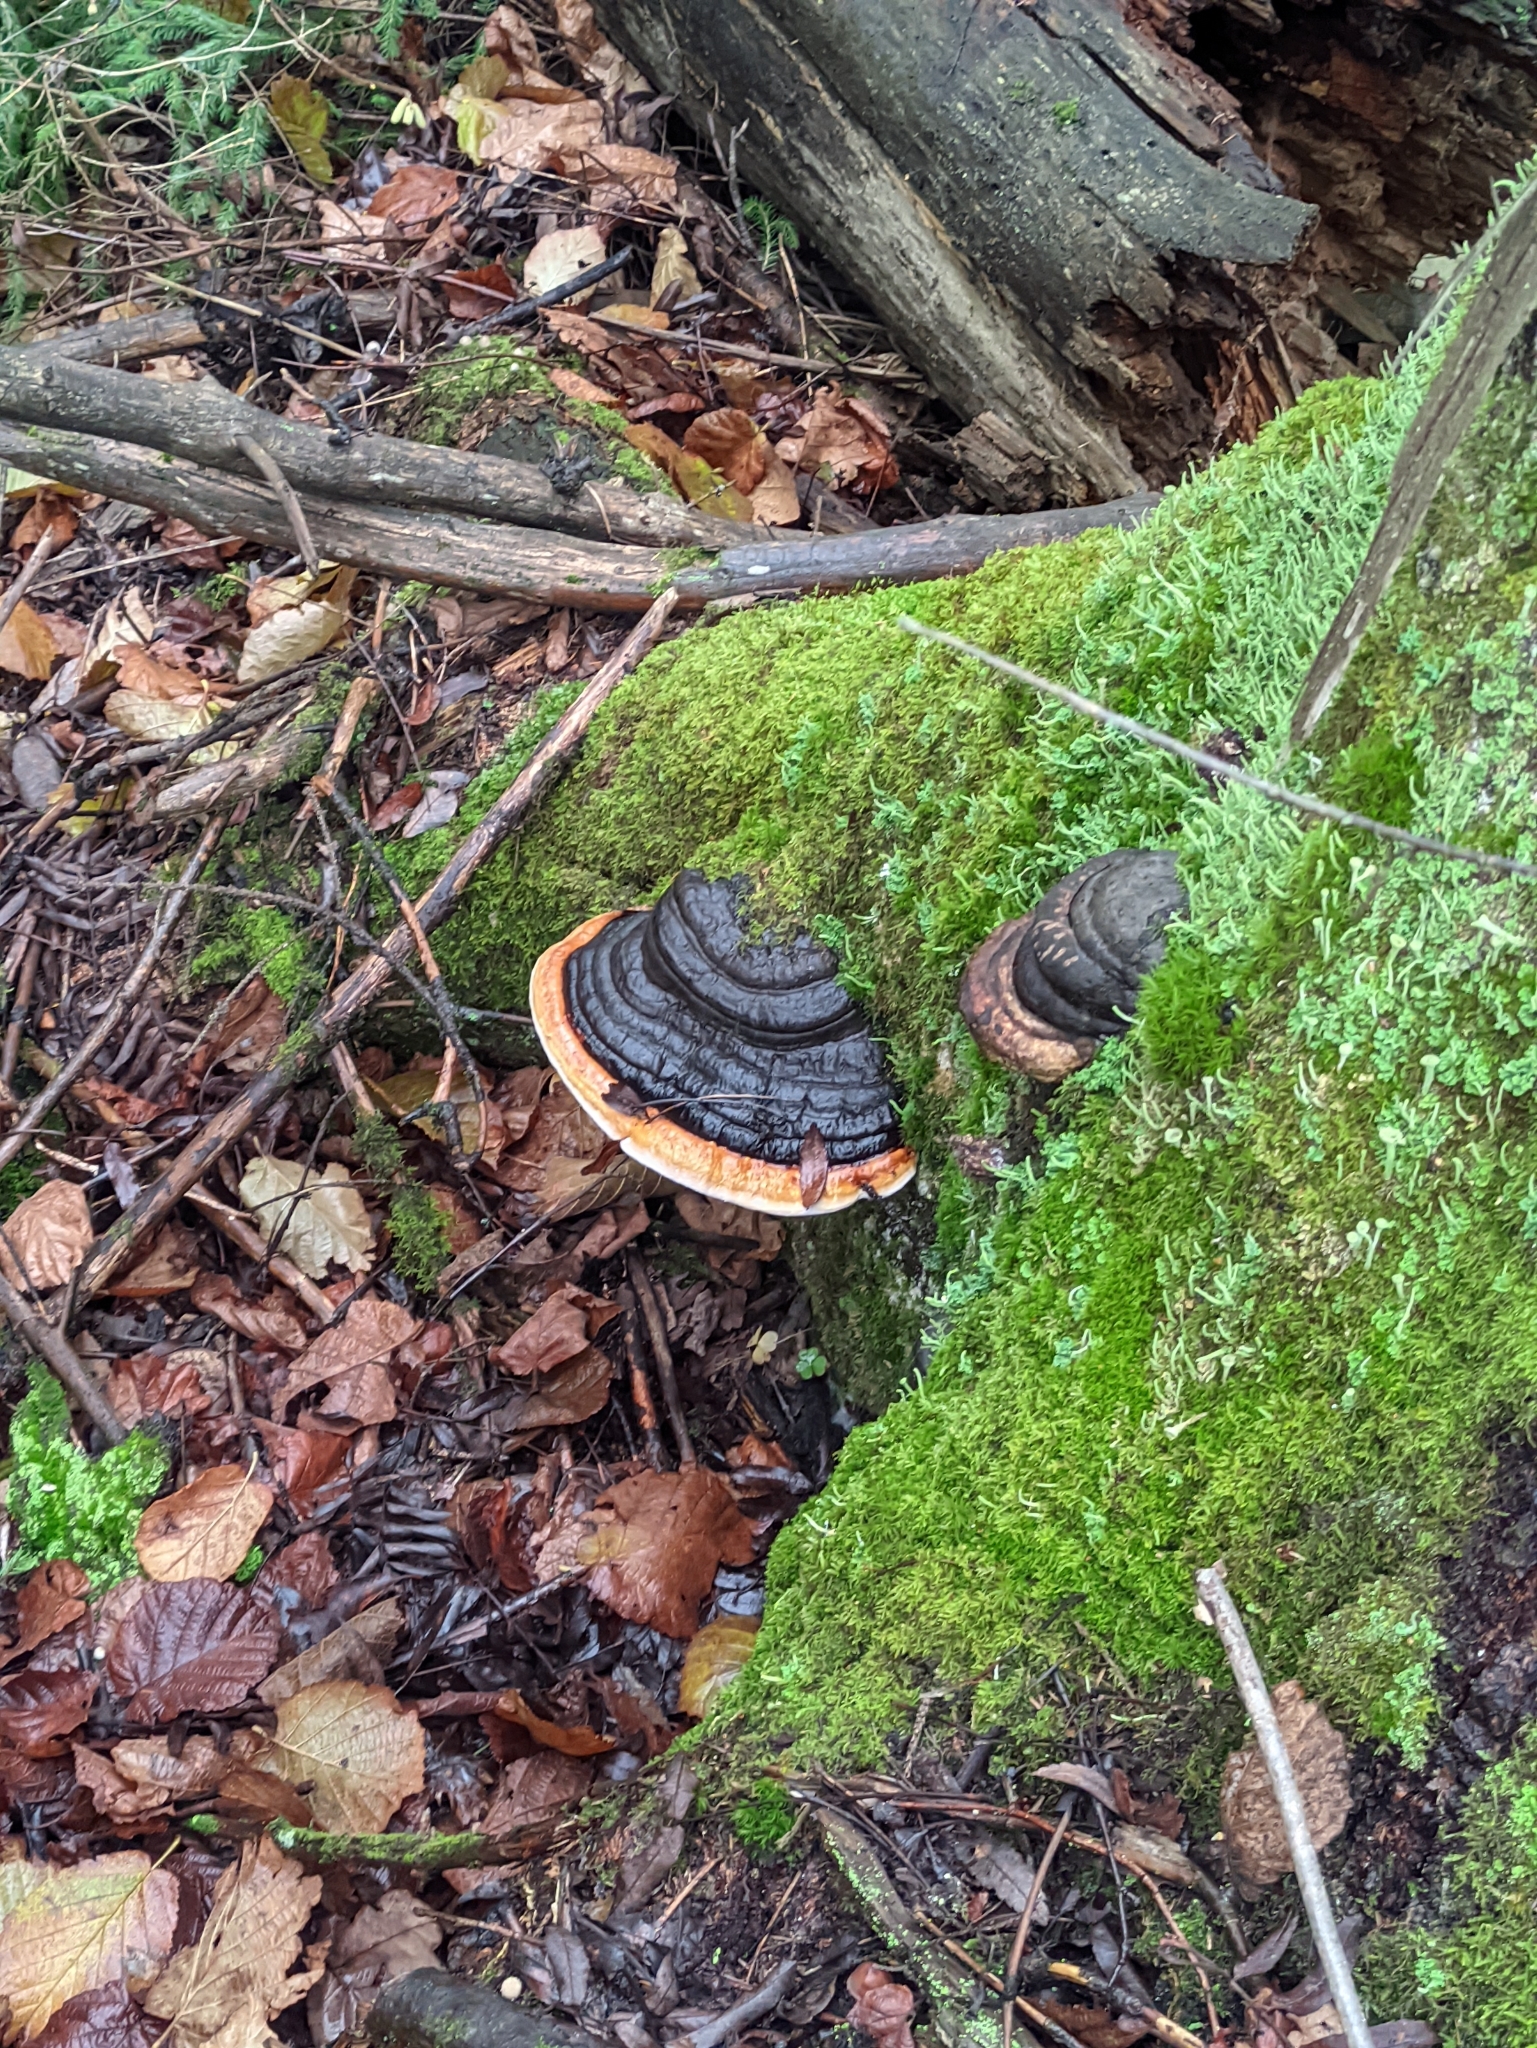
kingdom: Fungi
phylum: Basidiomycota
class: Agaricomycetes
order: Polyporales
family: Fomitopsidaceae
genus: Fomitopsis
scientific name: Fomitopsis pinicola
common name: Red-belted bracket
